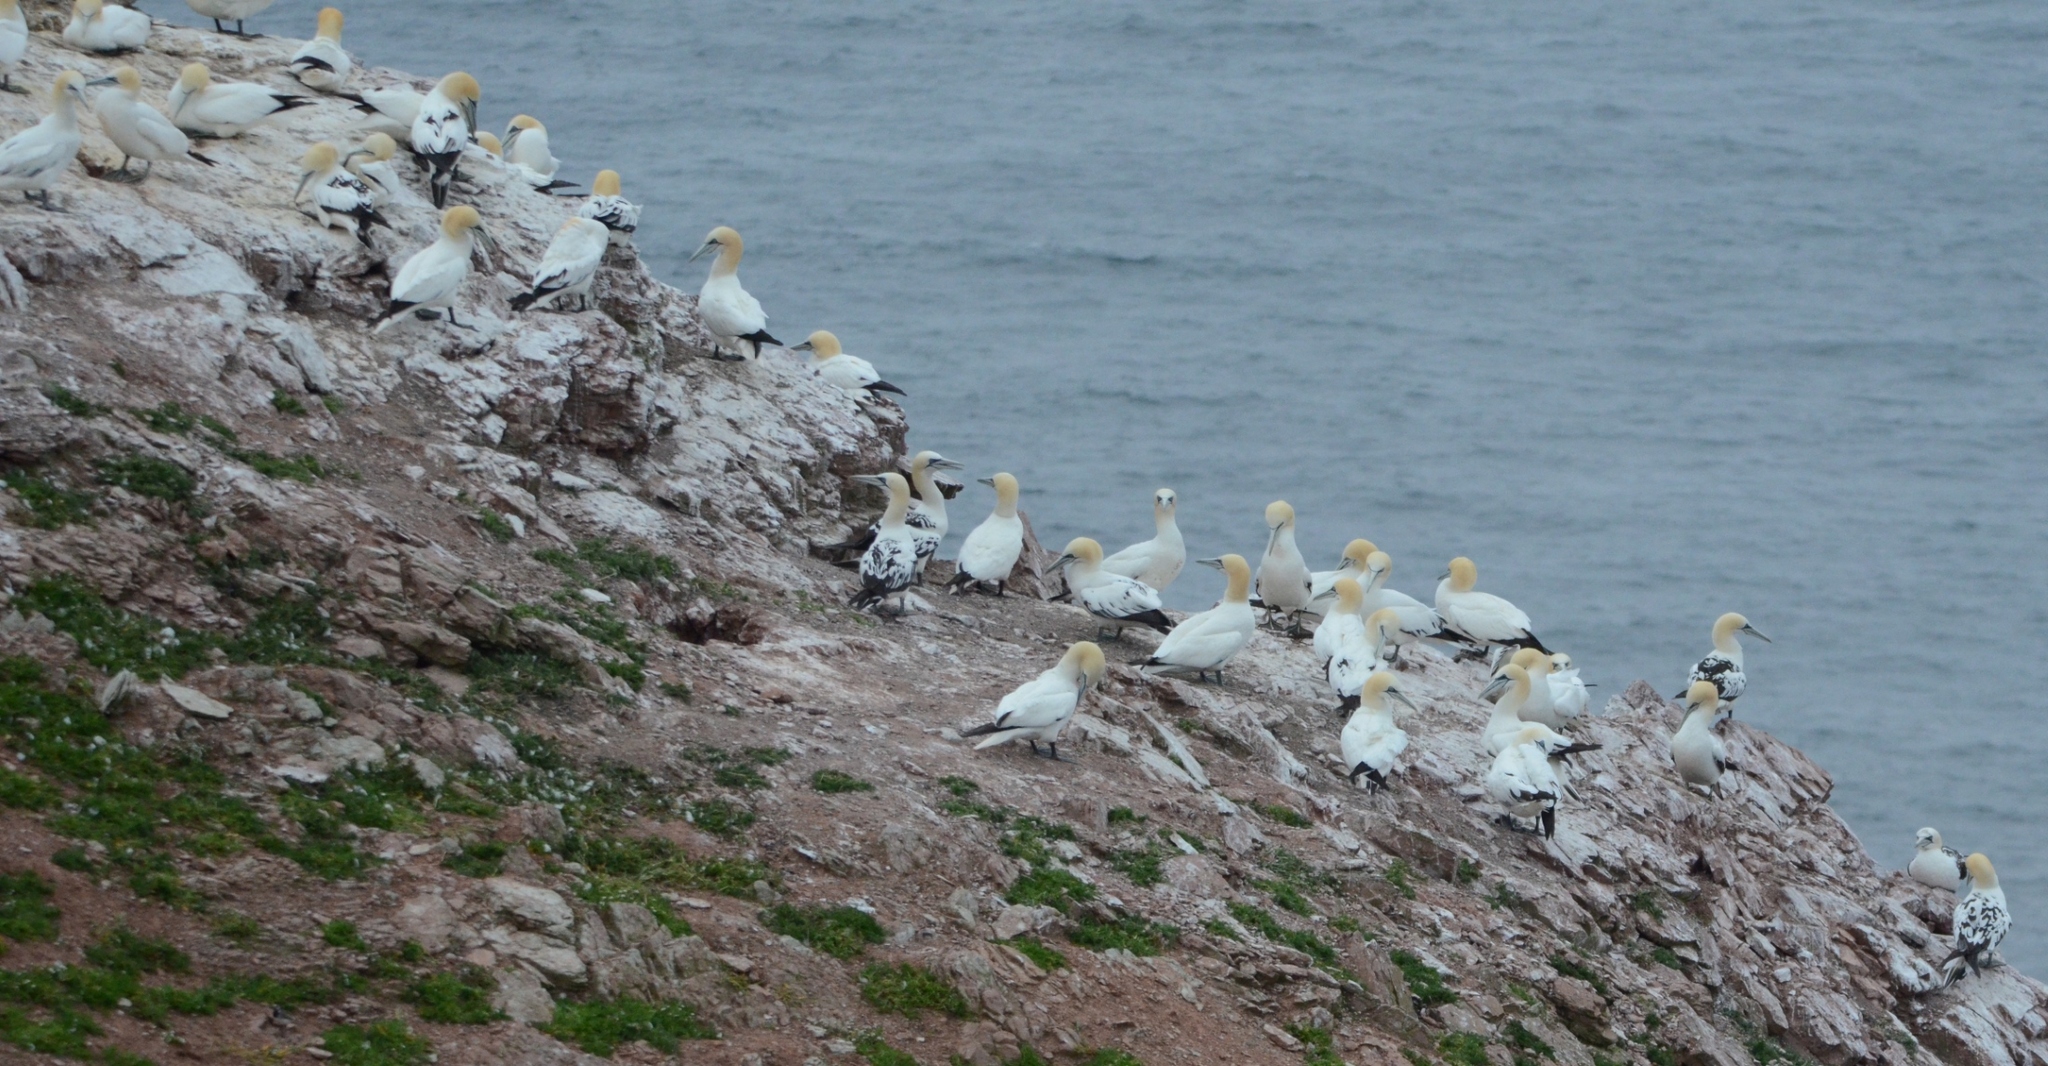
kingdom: Animalia
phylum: Chordata
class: Aves
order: Suliformes
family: Sulidae
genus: Morus
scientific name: Morus bassanus
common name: Northern gannet
